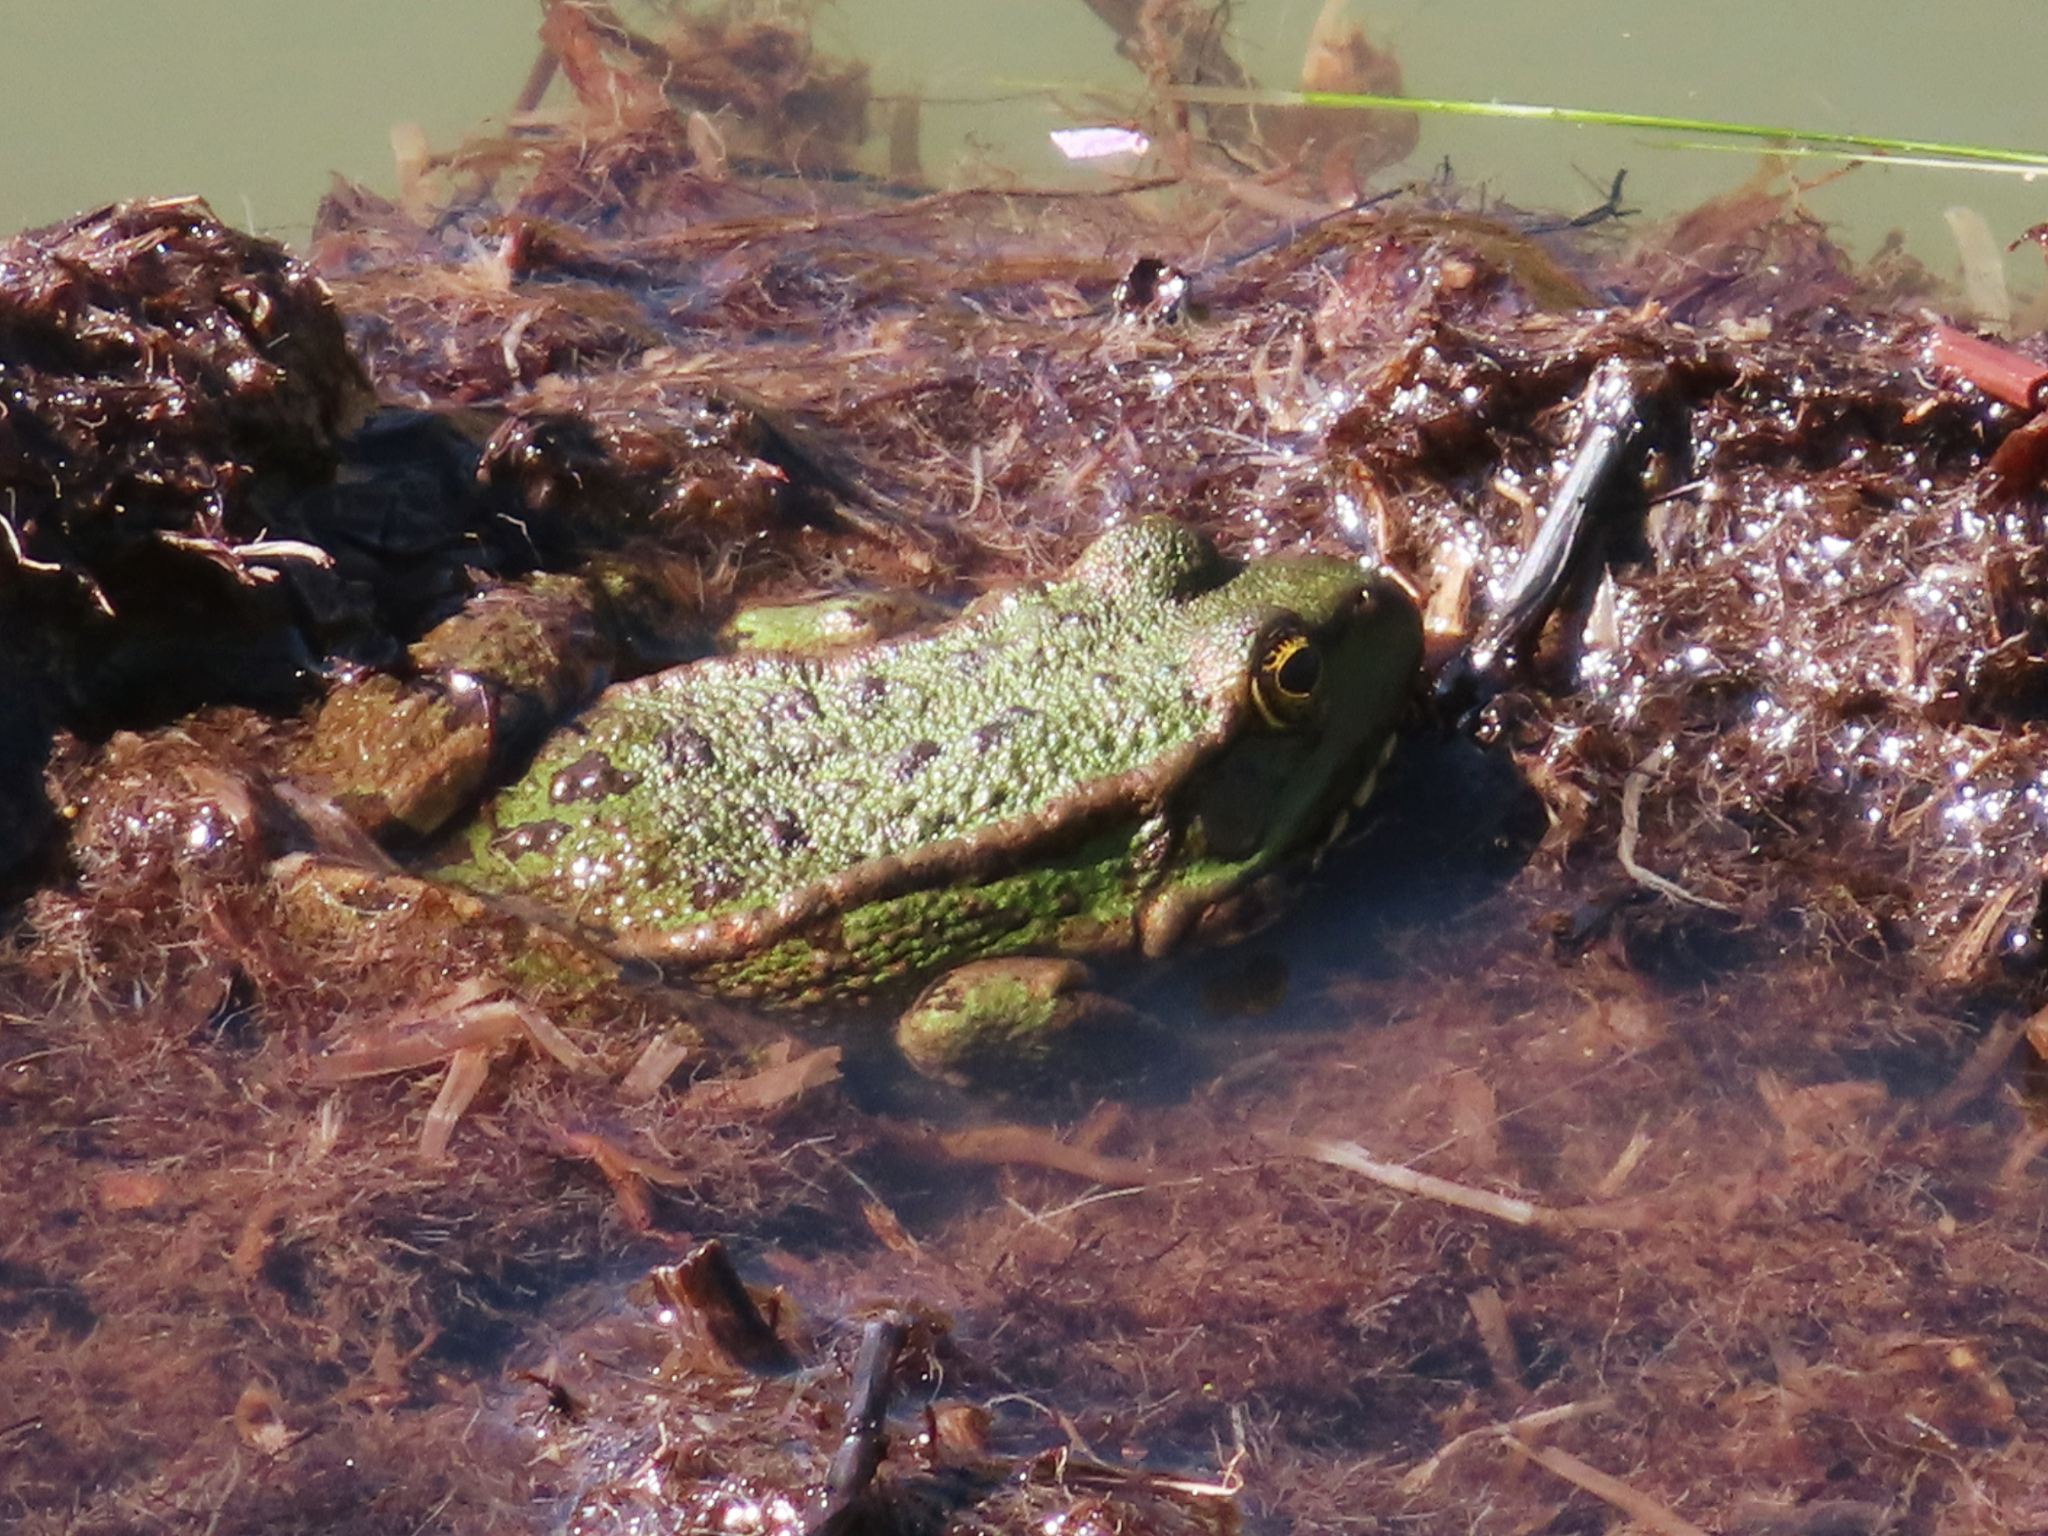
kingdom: Animalia
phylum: Chordata
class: Amphibia
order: Anura
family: Ranidae
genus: Pelophylax
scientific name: Pelophylax ridibundus
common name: Marsh frog
